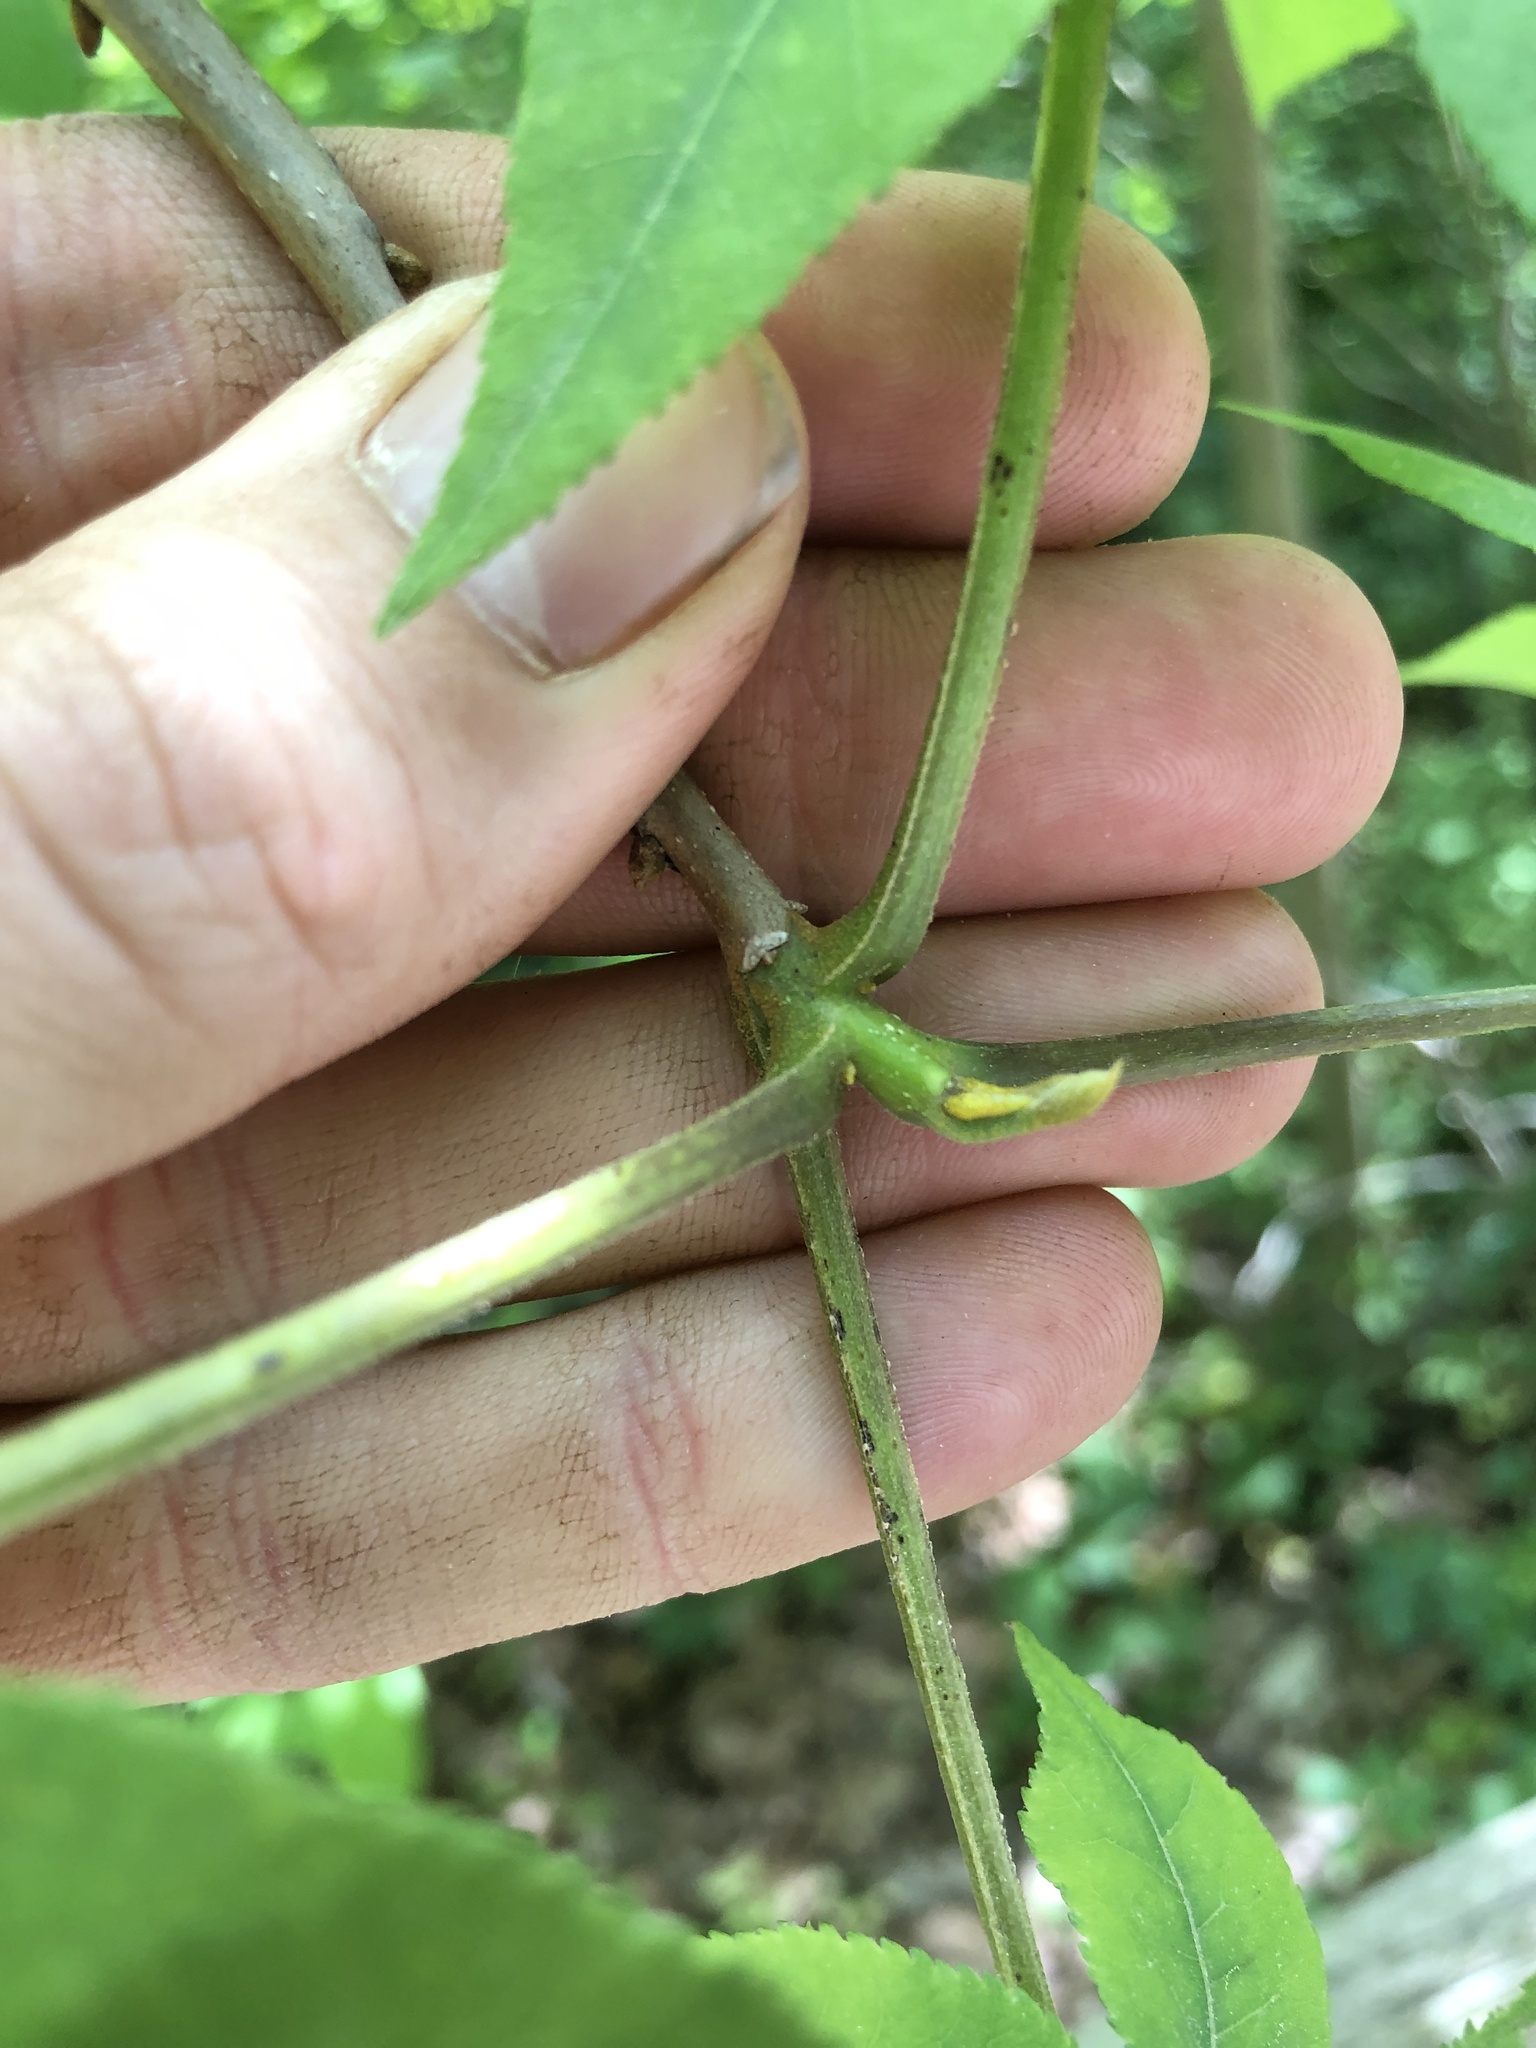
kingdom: Plantae
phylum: Tracheophyta
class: Magnoliopsida
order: Fagales
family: Juglandaceae
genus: Carya
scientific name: Carya cordiformis
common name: Bitternut hickory
